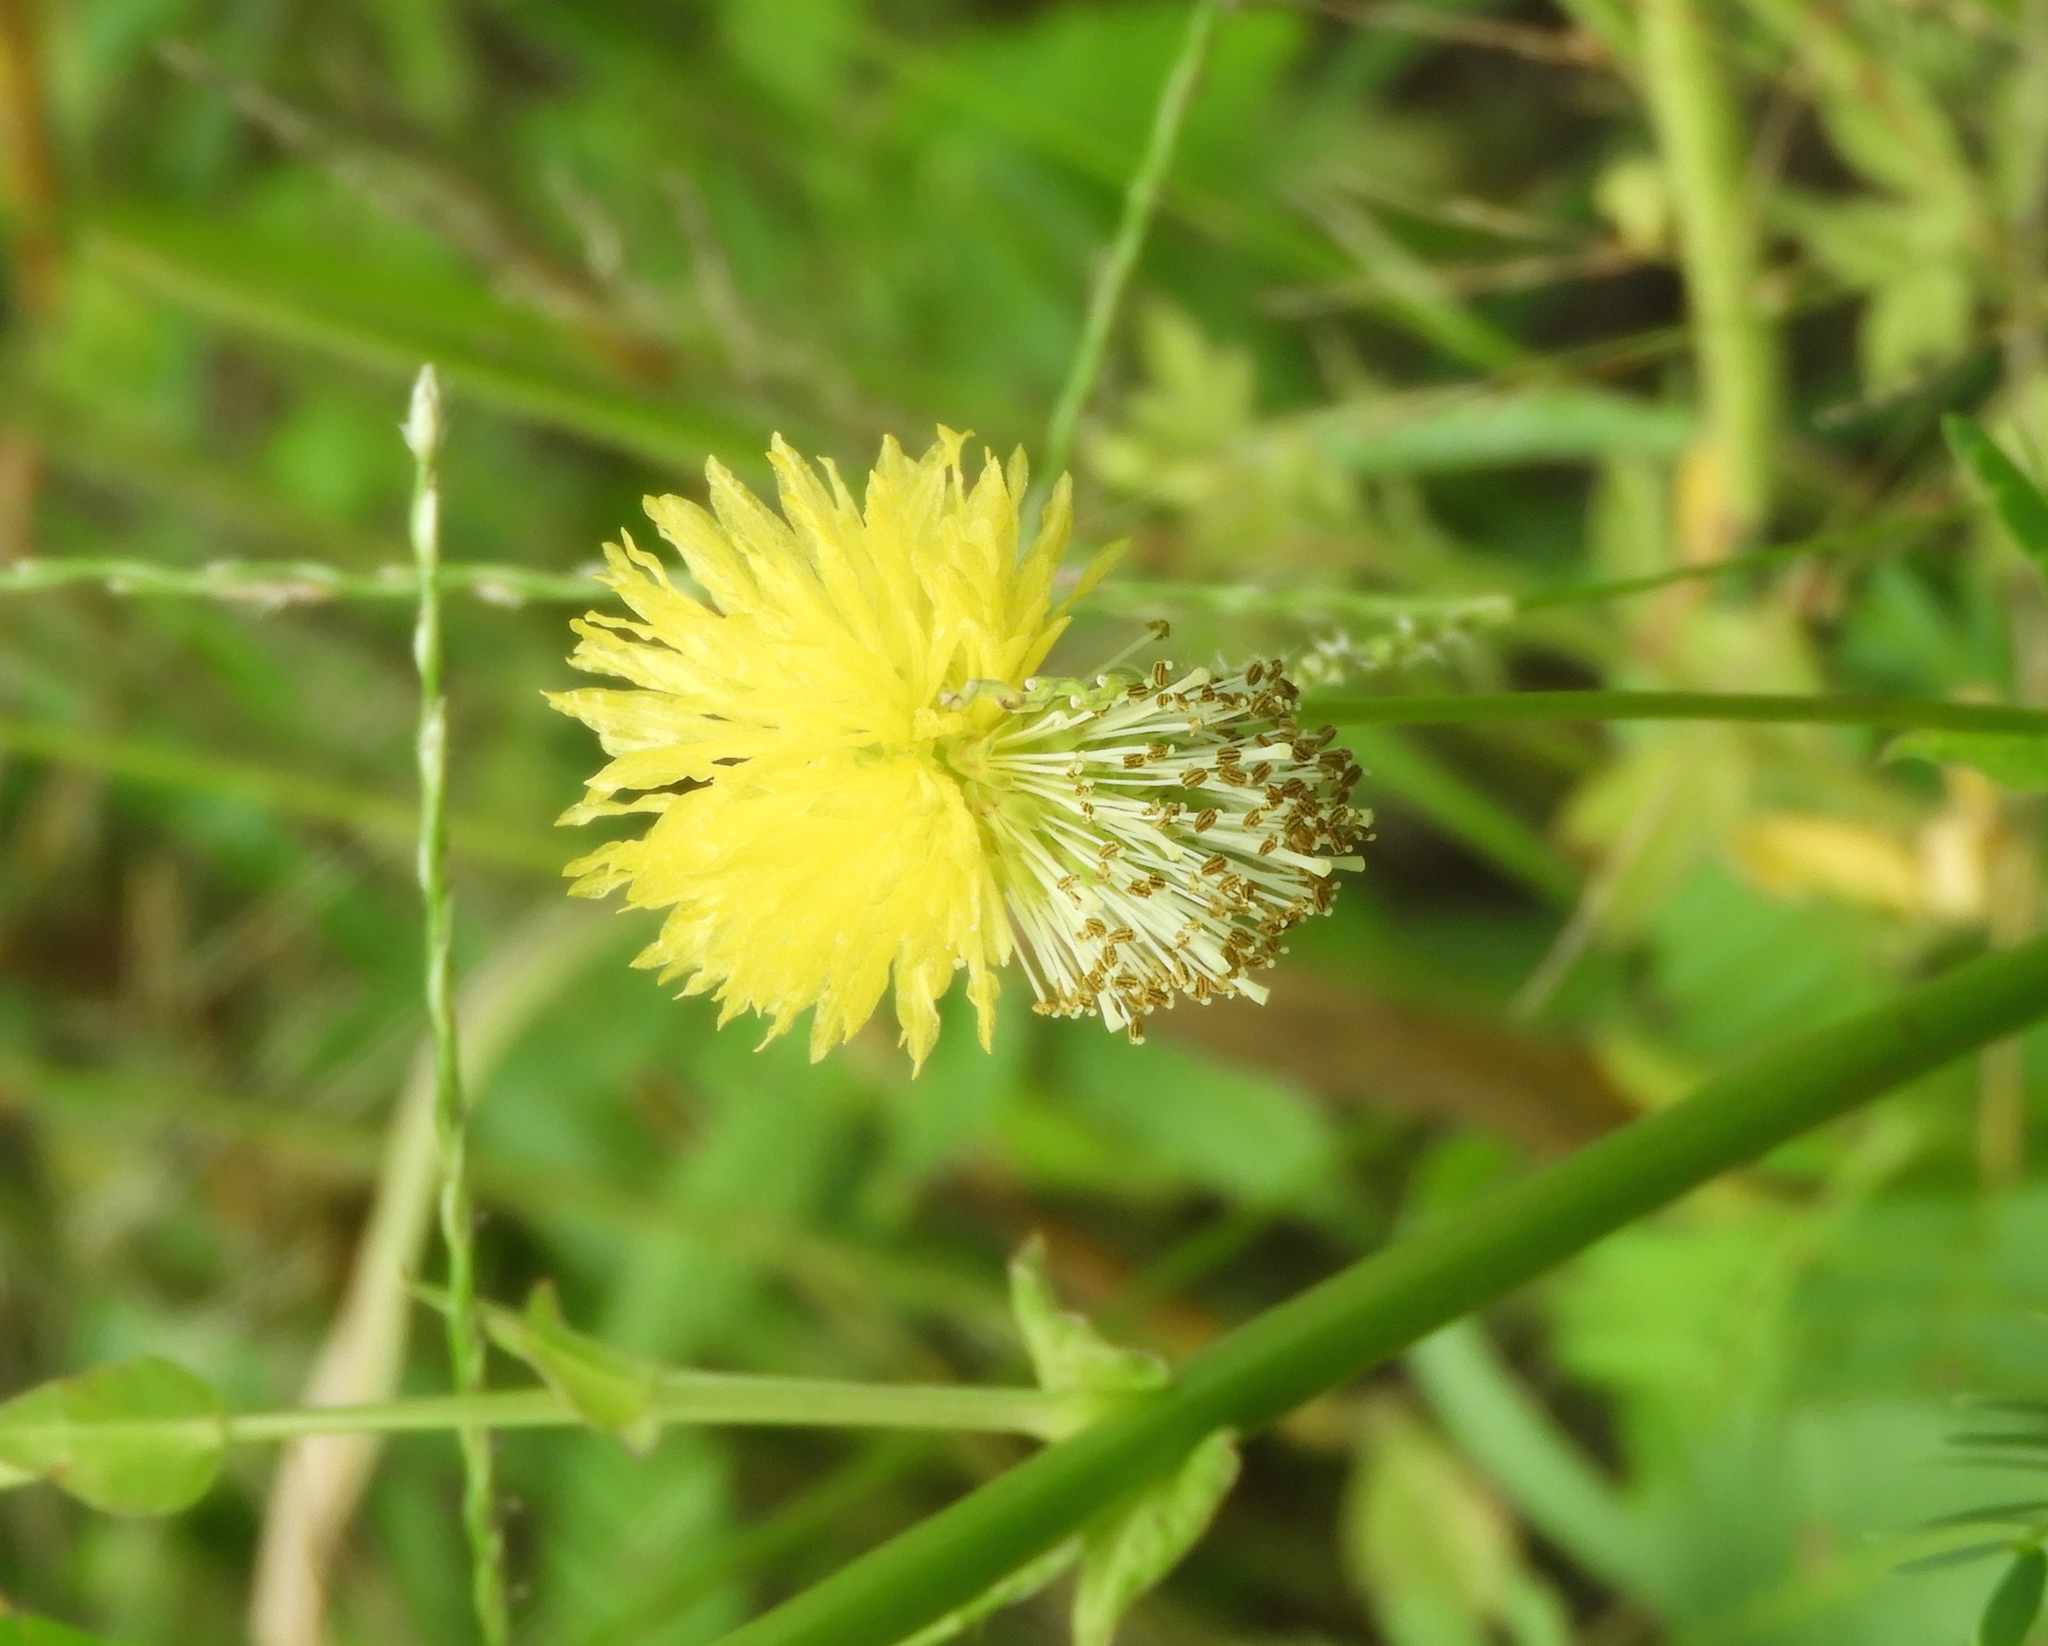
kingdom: Plantae
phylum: Tracheophyta
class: Magnoliopsida
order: Fabales
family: Fabaceae
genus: Neptunia
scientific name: Neptunia plena
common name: Dead and awake
